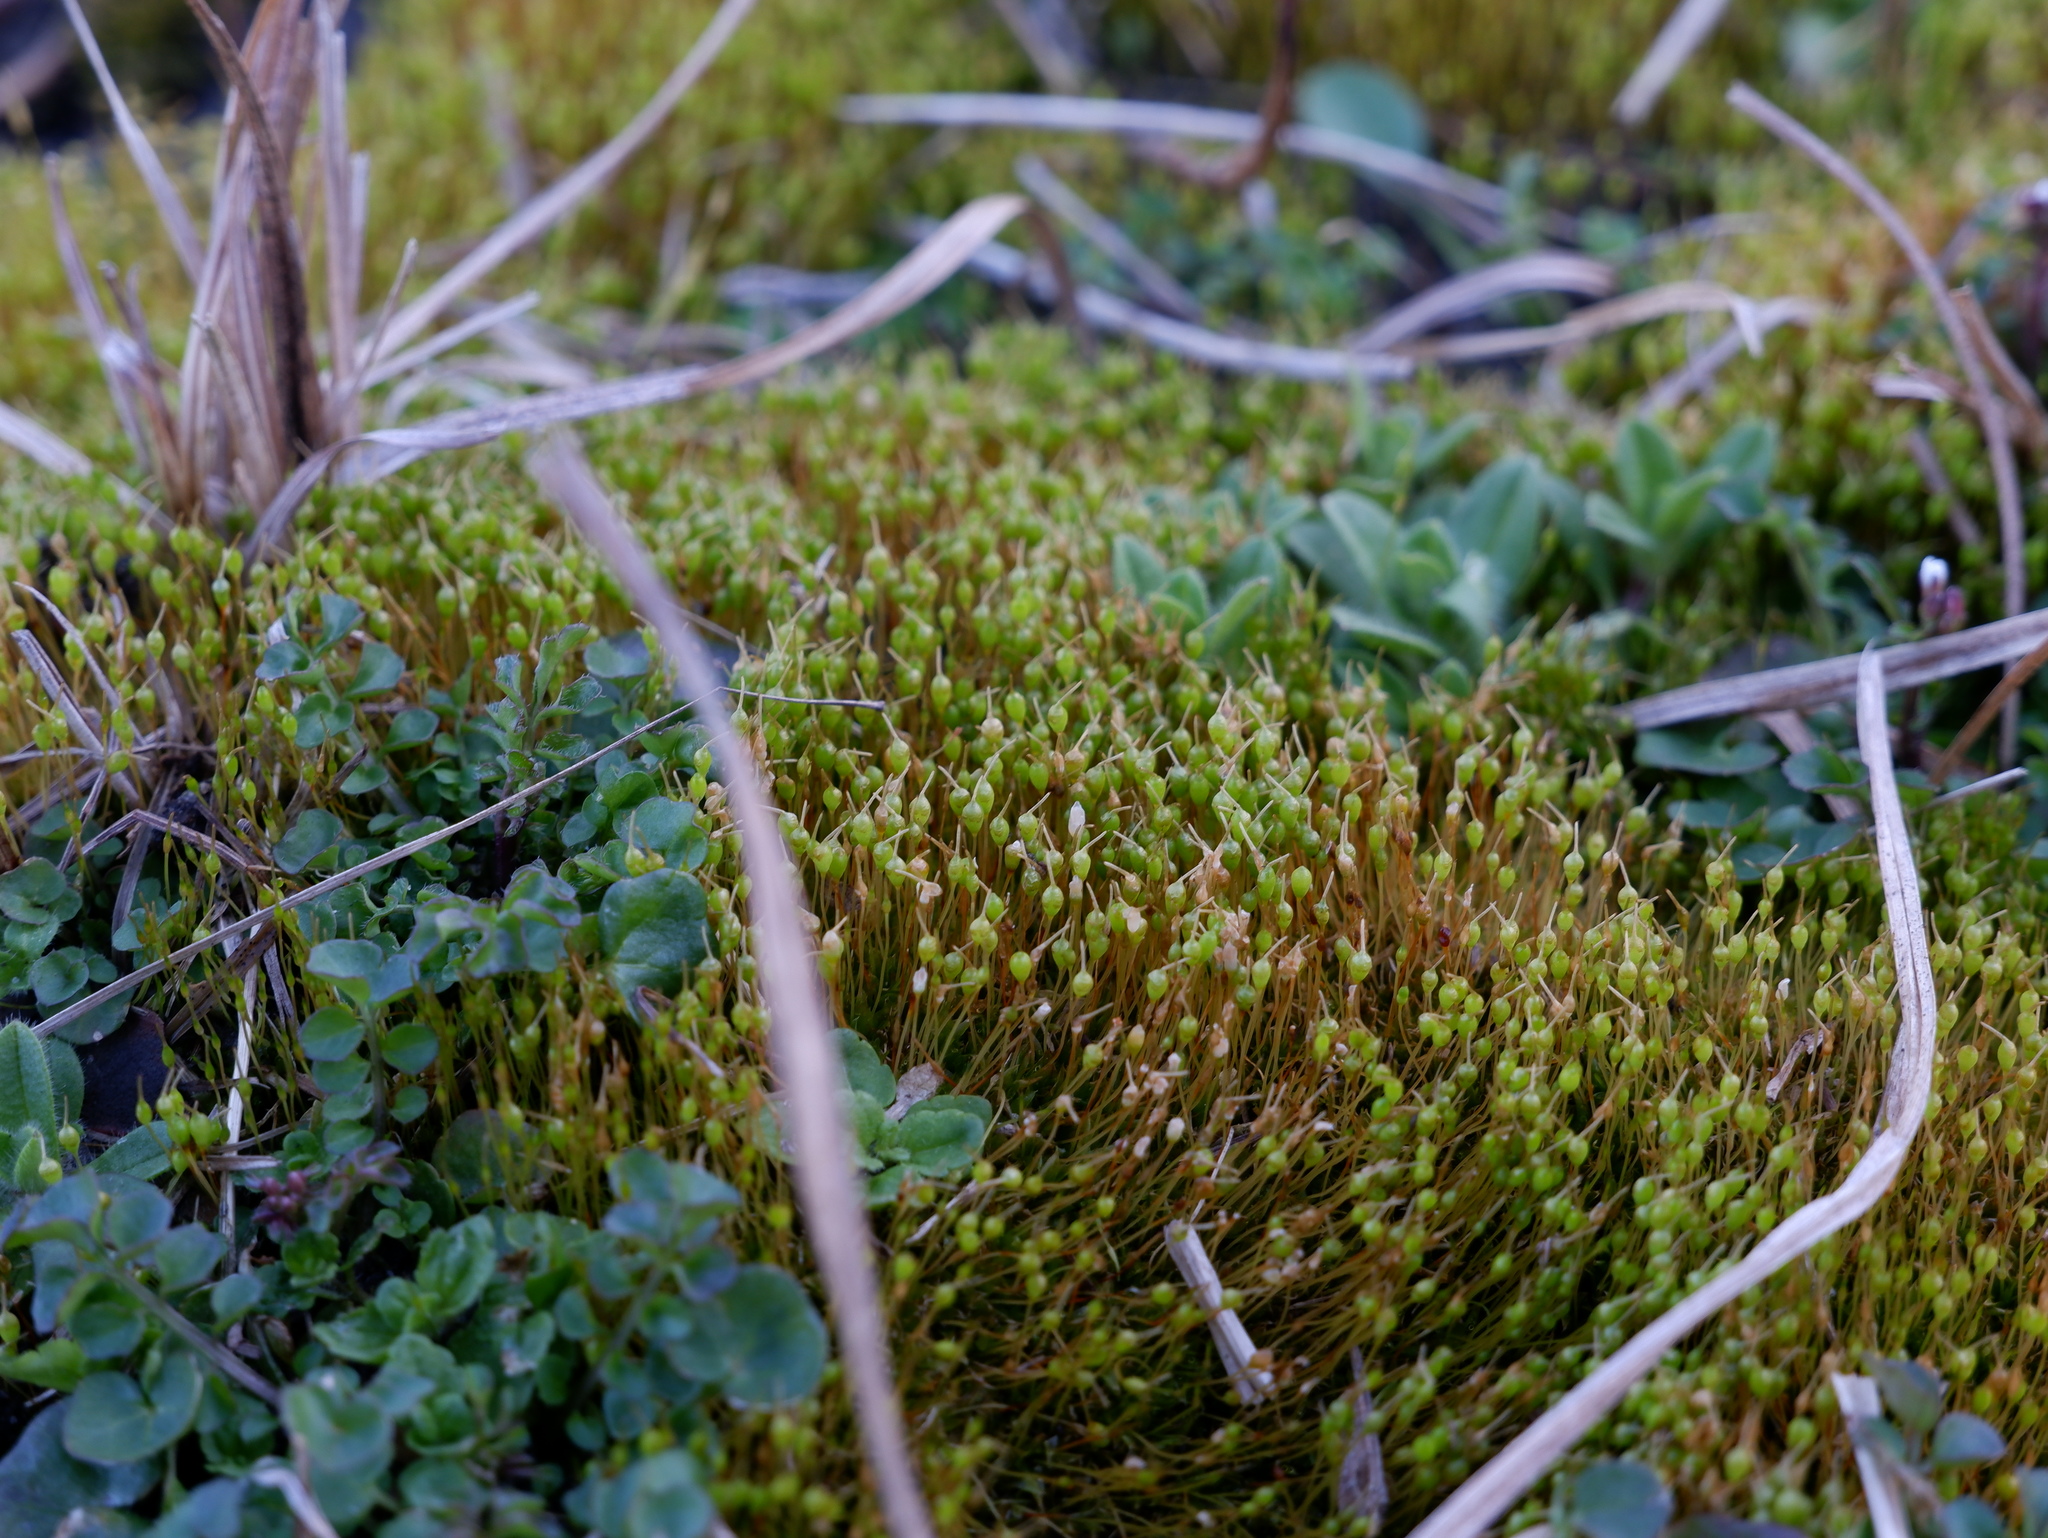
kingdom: Plantae
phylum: Bryophyta
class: Bryopsida
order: Funariales
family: Funariaceae
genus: Physcomitrium
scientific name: Physcomitrium pyriforme
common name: Common bladder-moss
